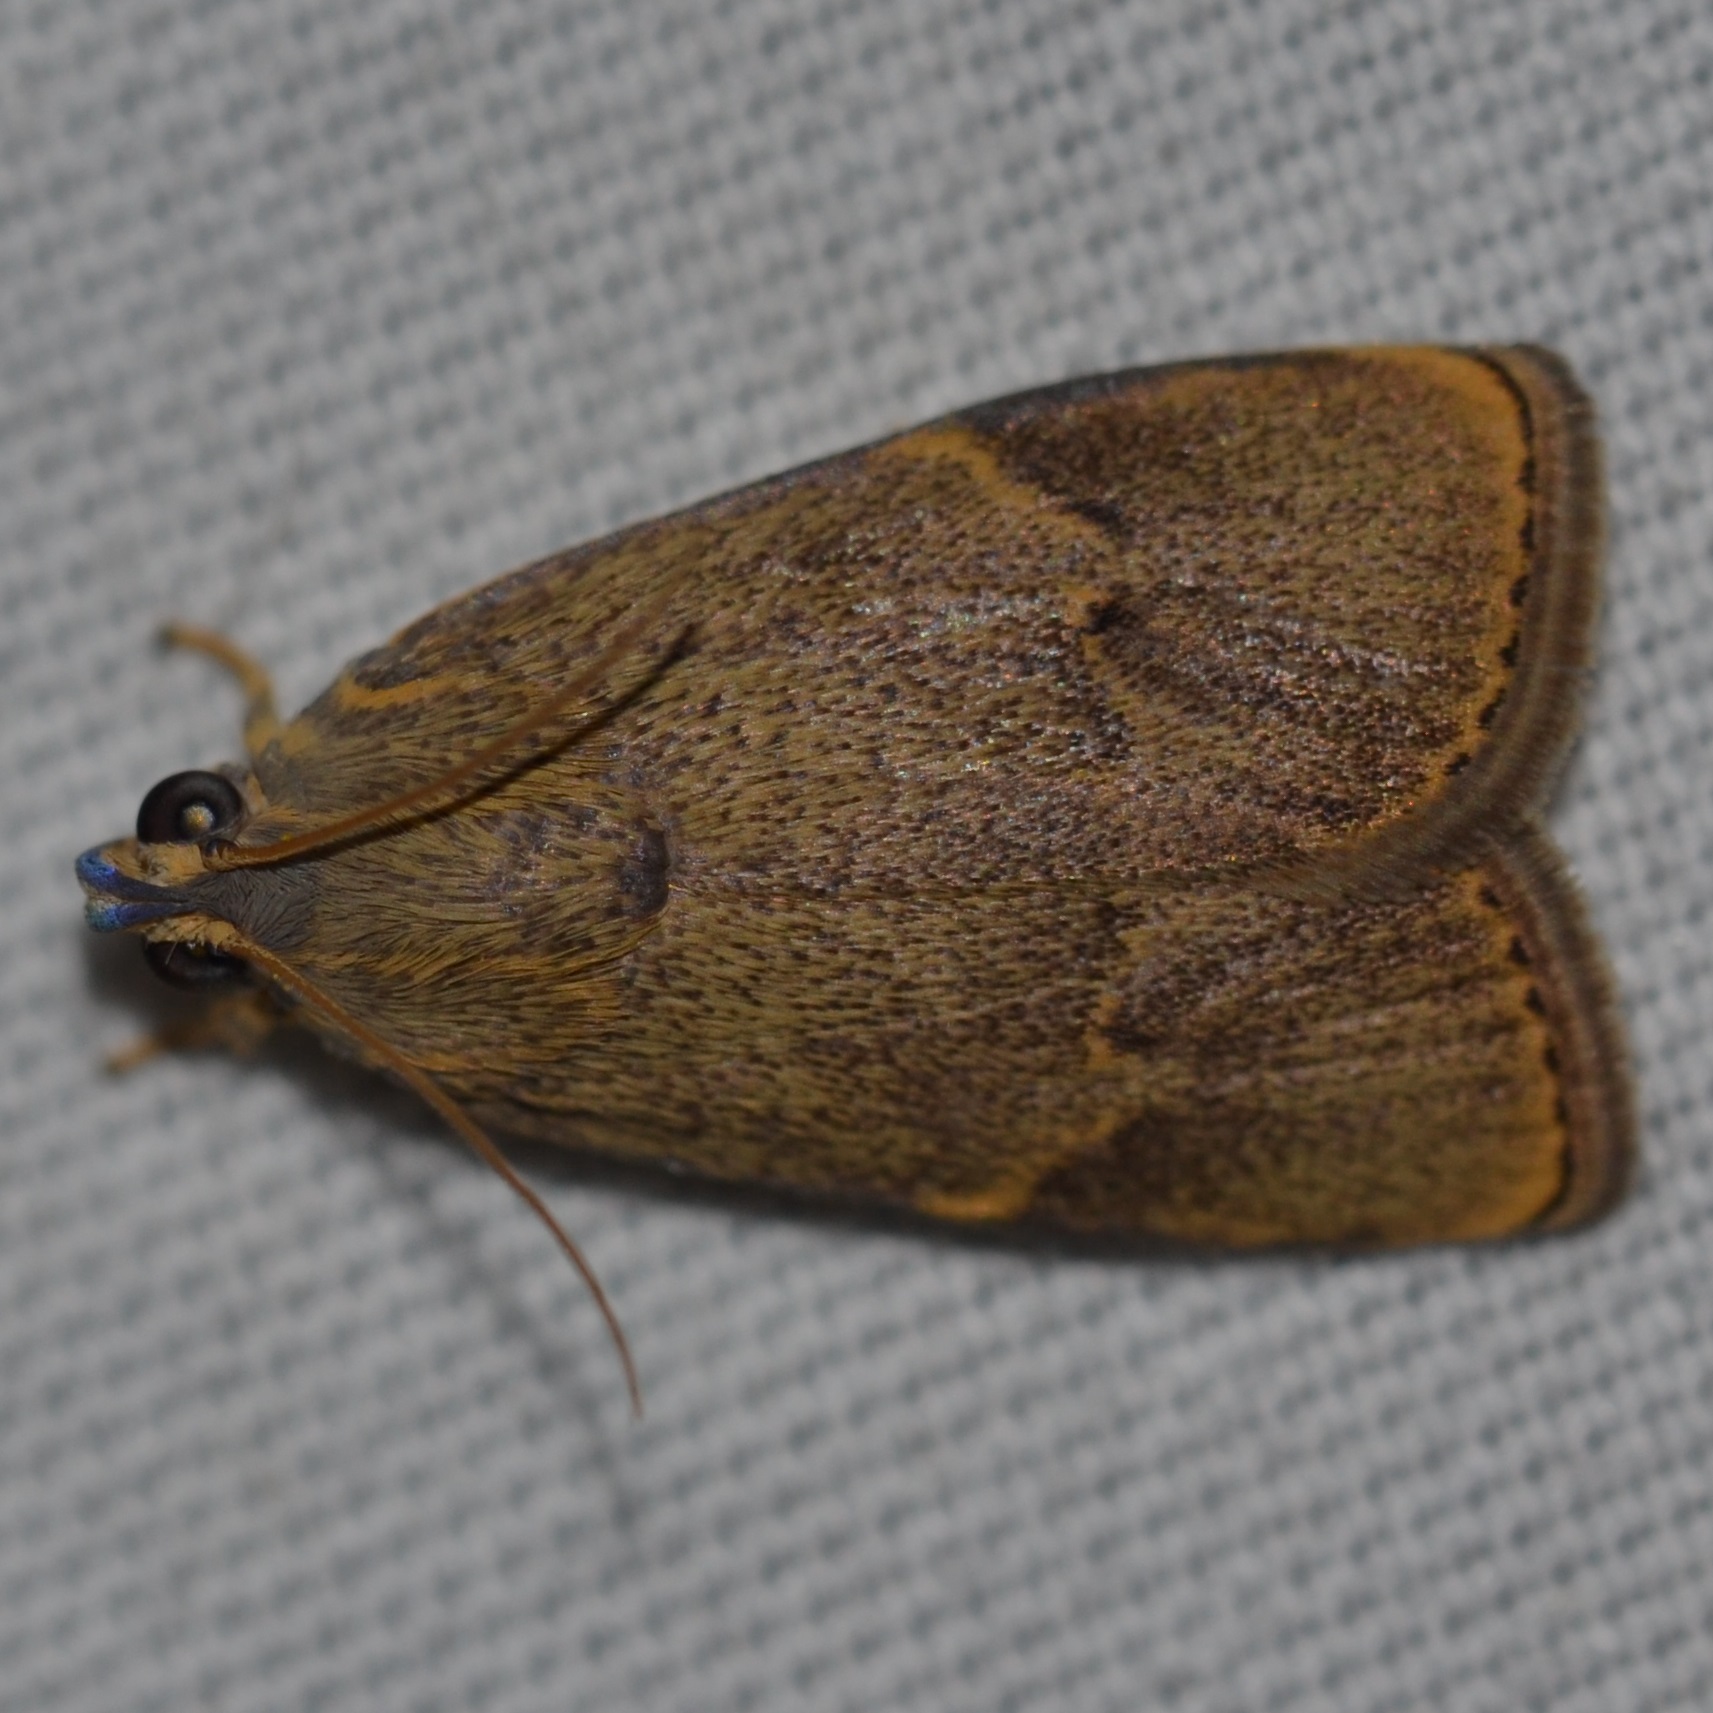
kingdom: Animalia
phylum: Arthropoda
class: Insecta
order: Lepidoptera
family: Immidae
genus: Imma
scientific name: Imma mylias
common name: Moth
